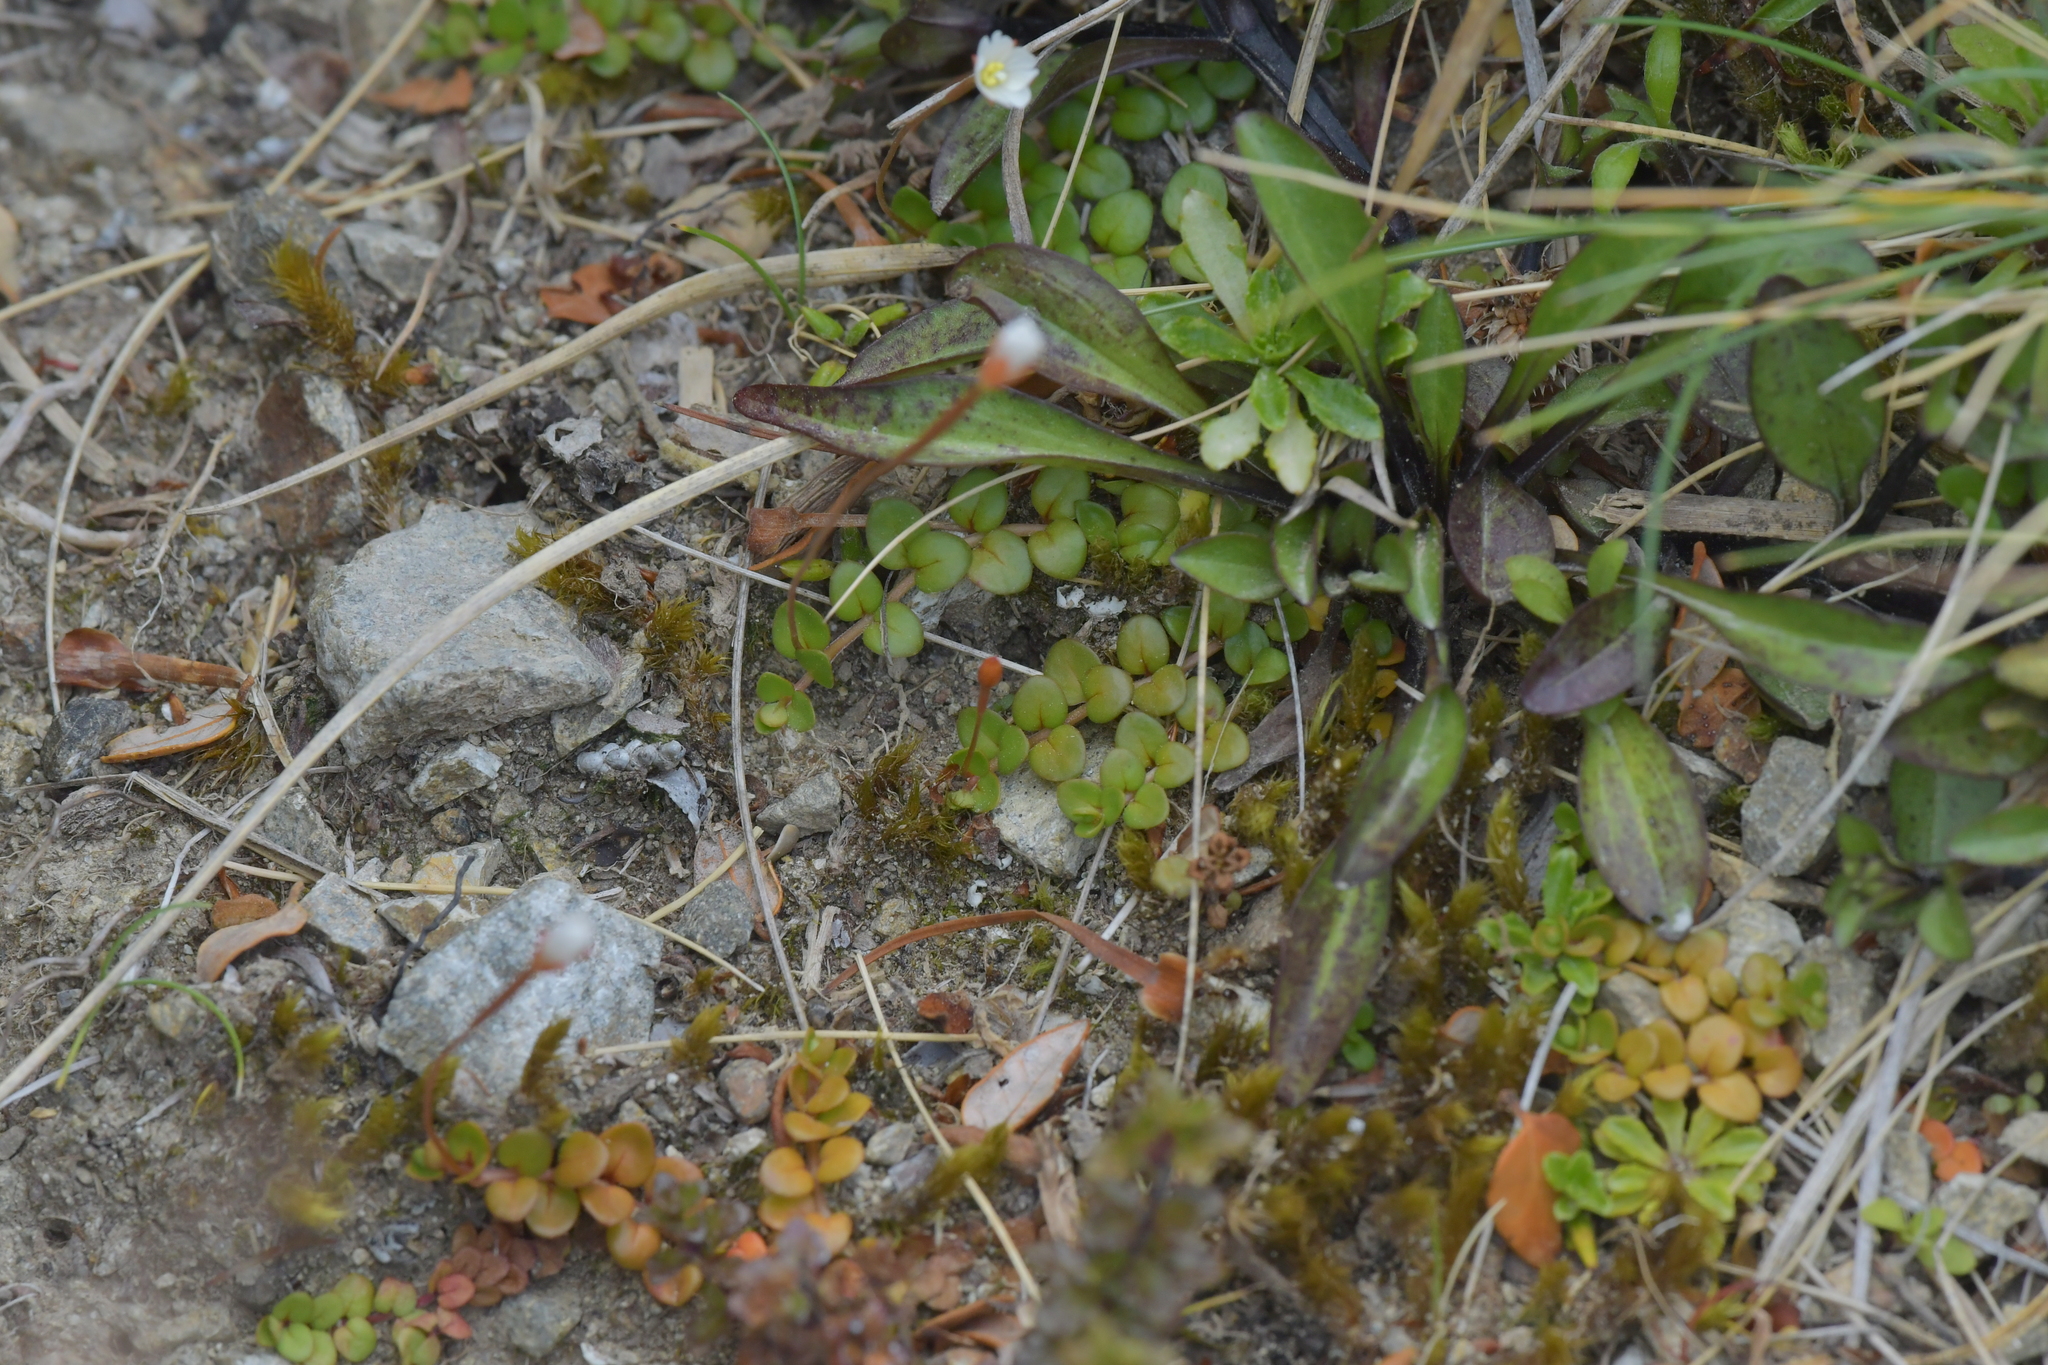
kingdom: Plantae
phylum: Tracheophyta
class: Magnoliopsida
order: Myrtales
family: Onagraceae
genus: Epilobium
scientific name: Epilobium brunnescens
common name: New zealand willowherb
